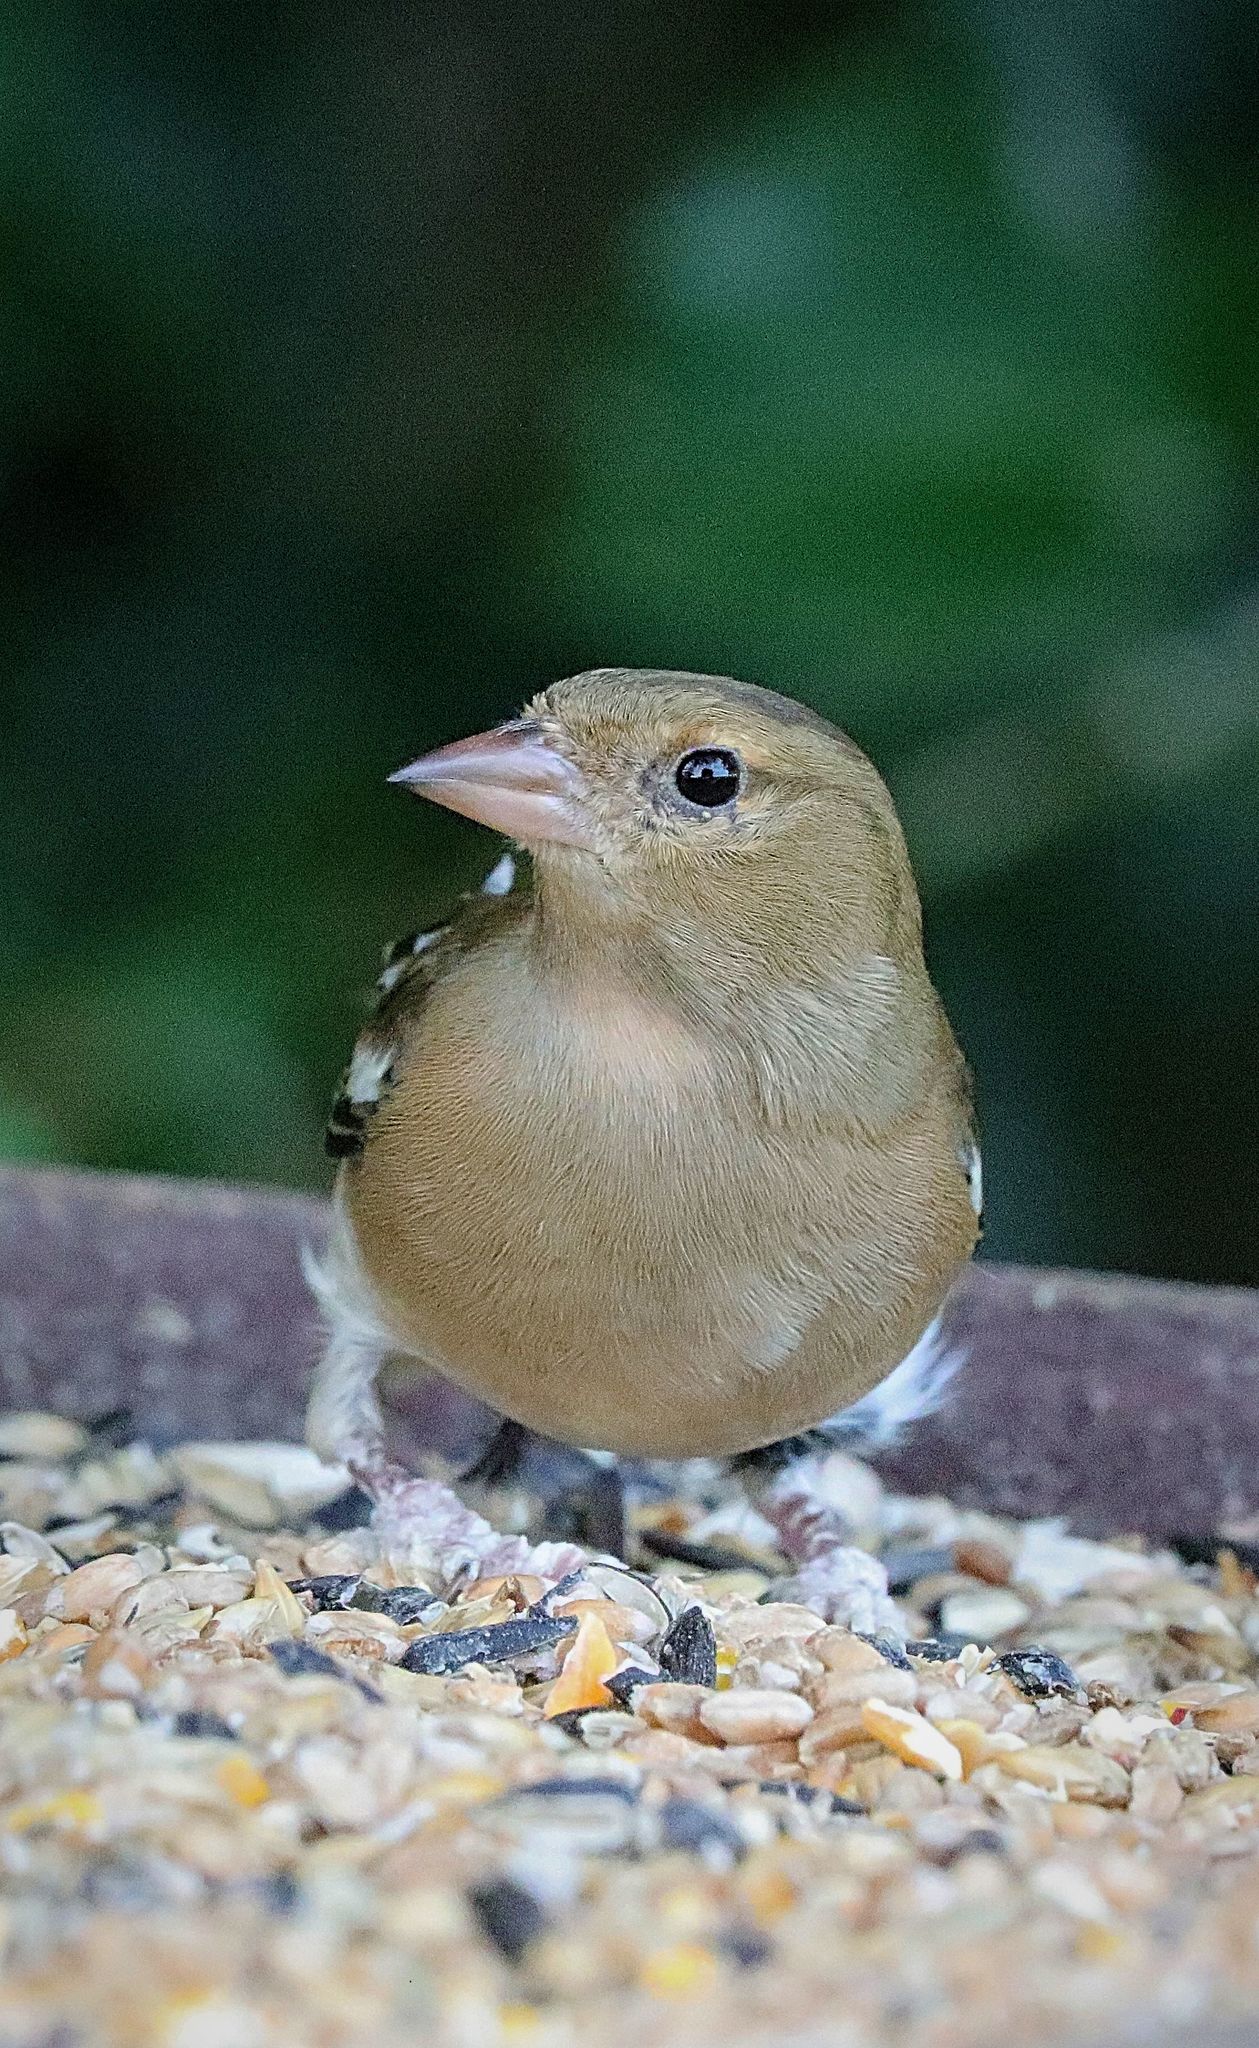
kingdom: Animalia
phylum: Chordata
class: Aves
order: Passeriformes
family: Fringillidae
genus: Fringilla
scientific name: Fringilla coelebs
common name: Common chaffinch
